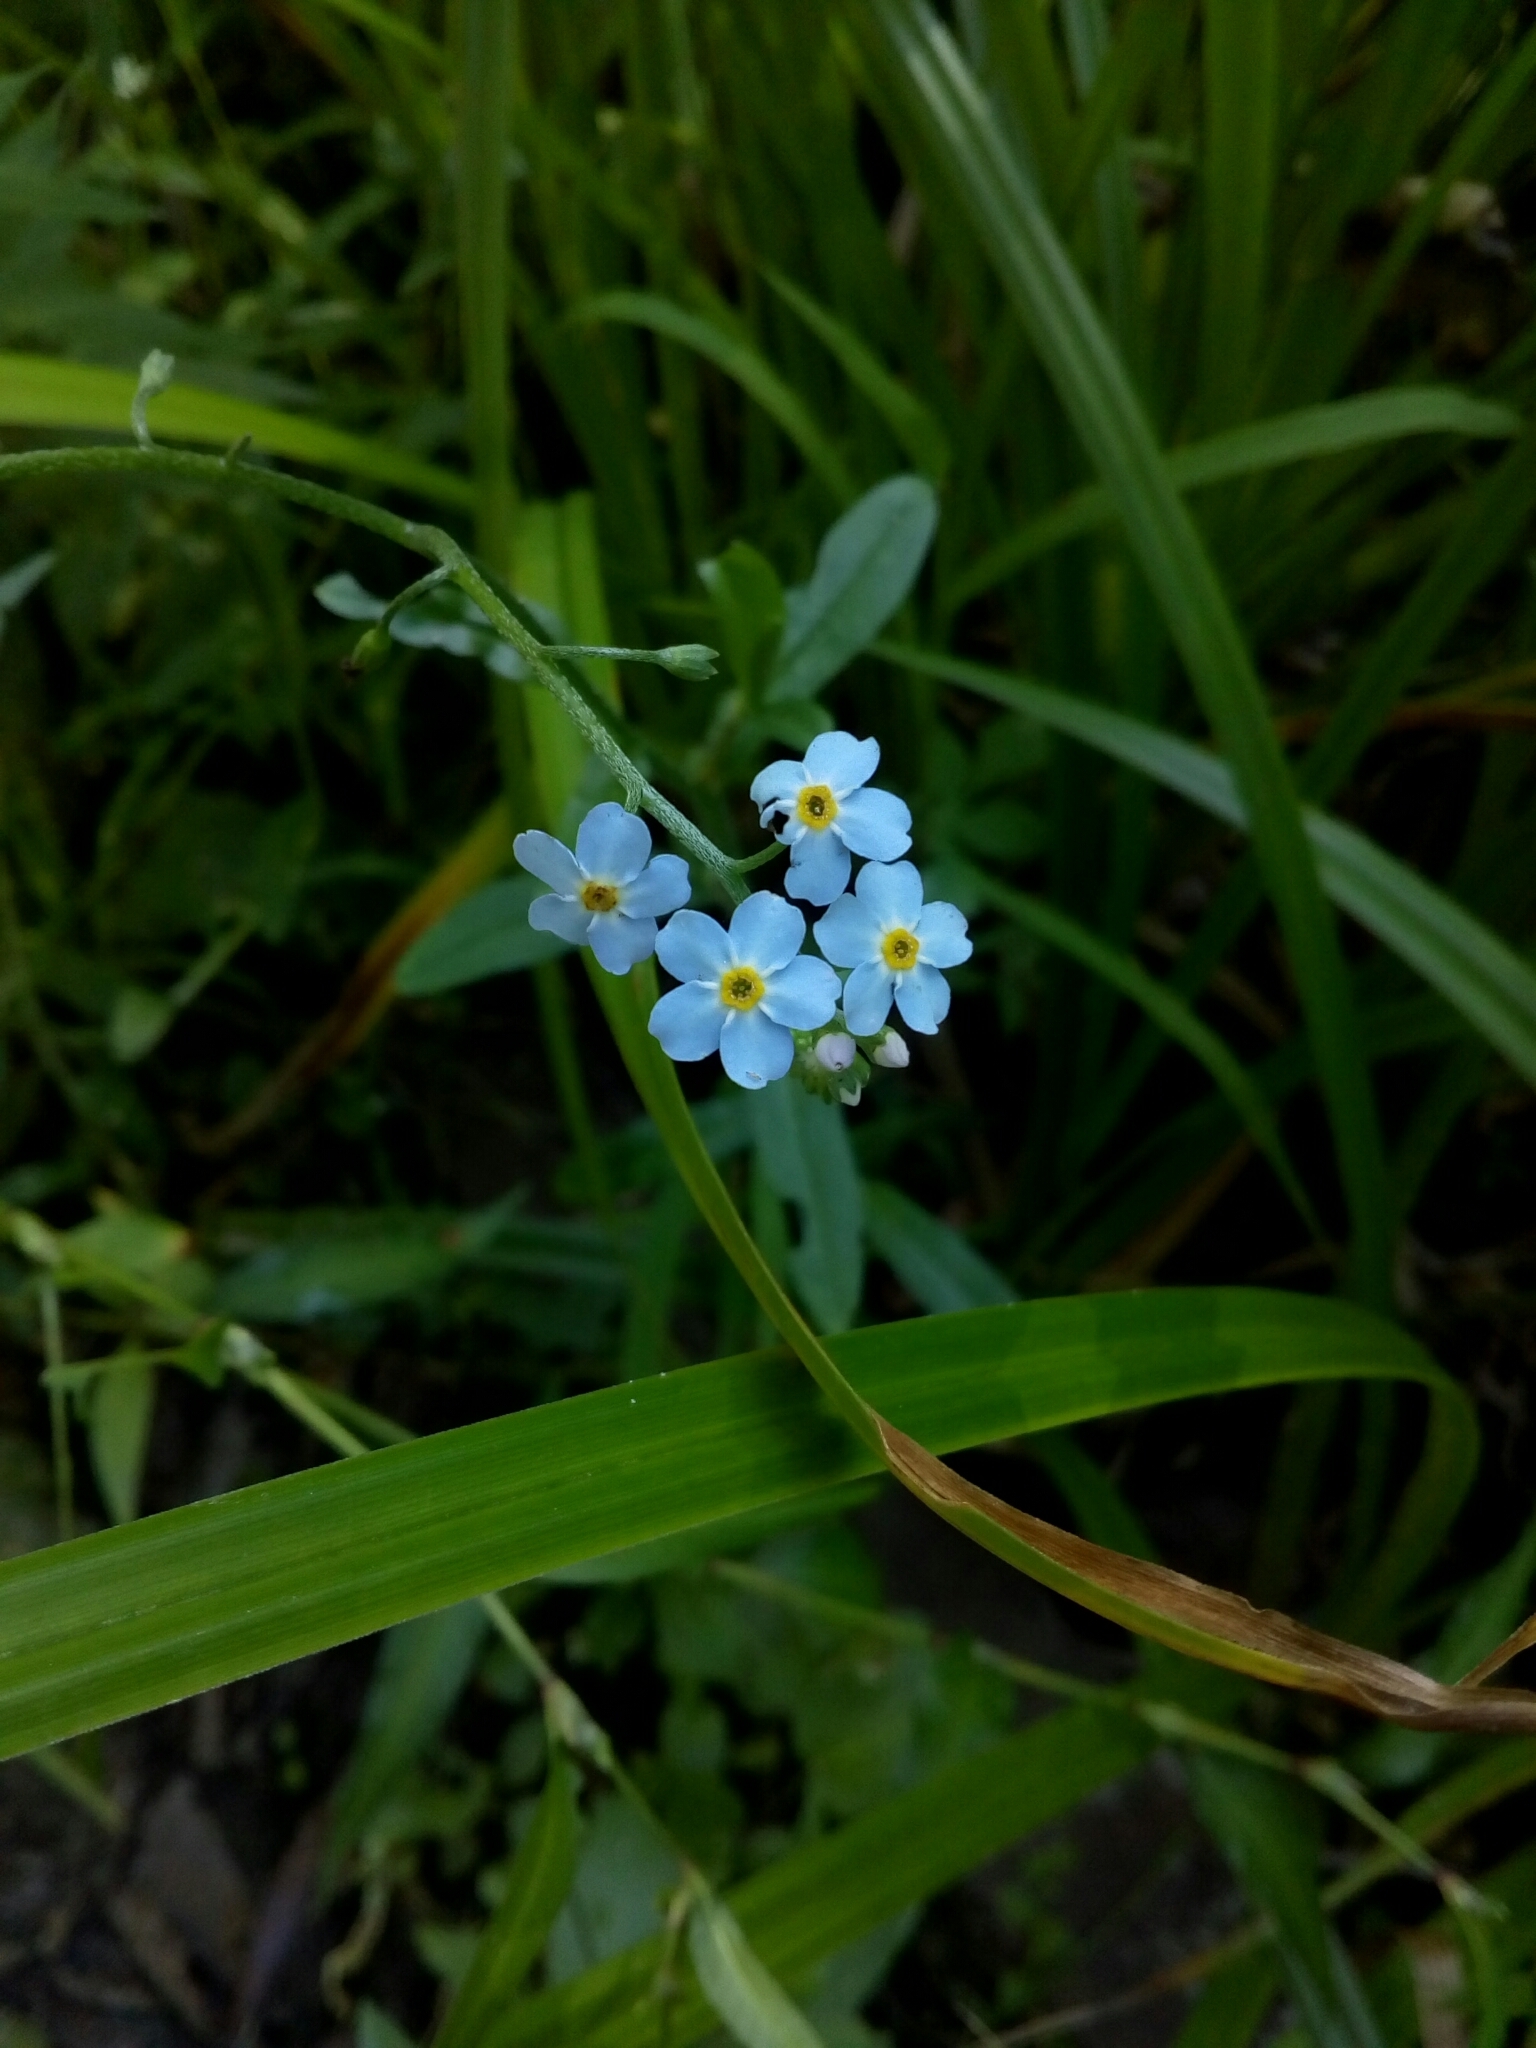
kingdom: Plantae
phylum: Tracheophyta
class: Magnoliopsida
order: Boraginales
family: Boraginaceae
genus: Myosotis
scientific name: Myosotis scorpioides
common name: Water forget-me-not
